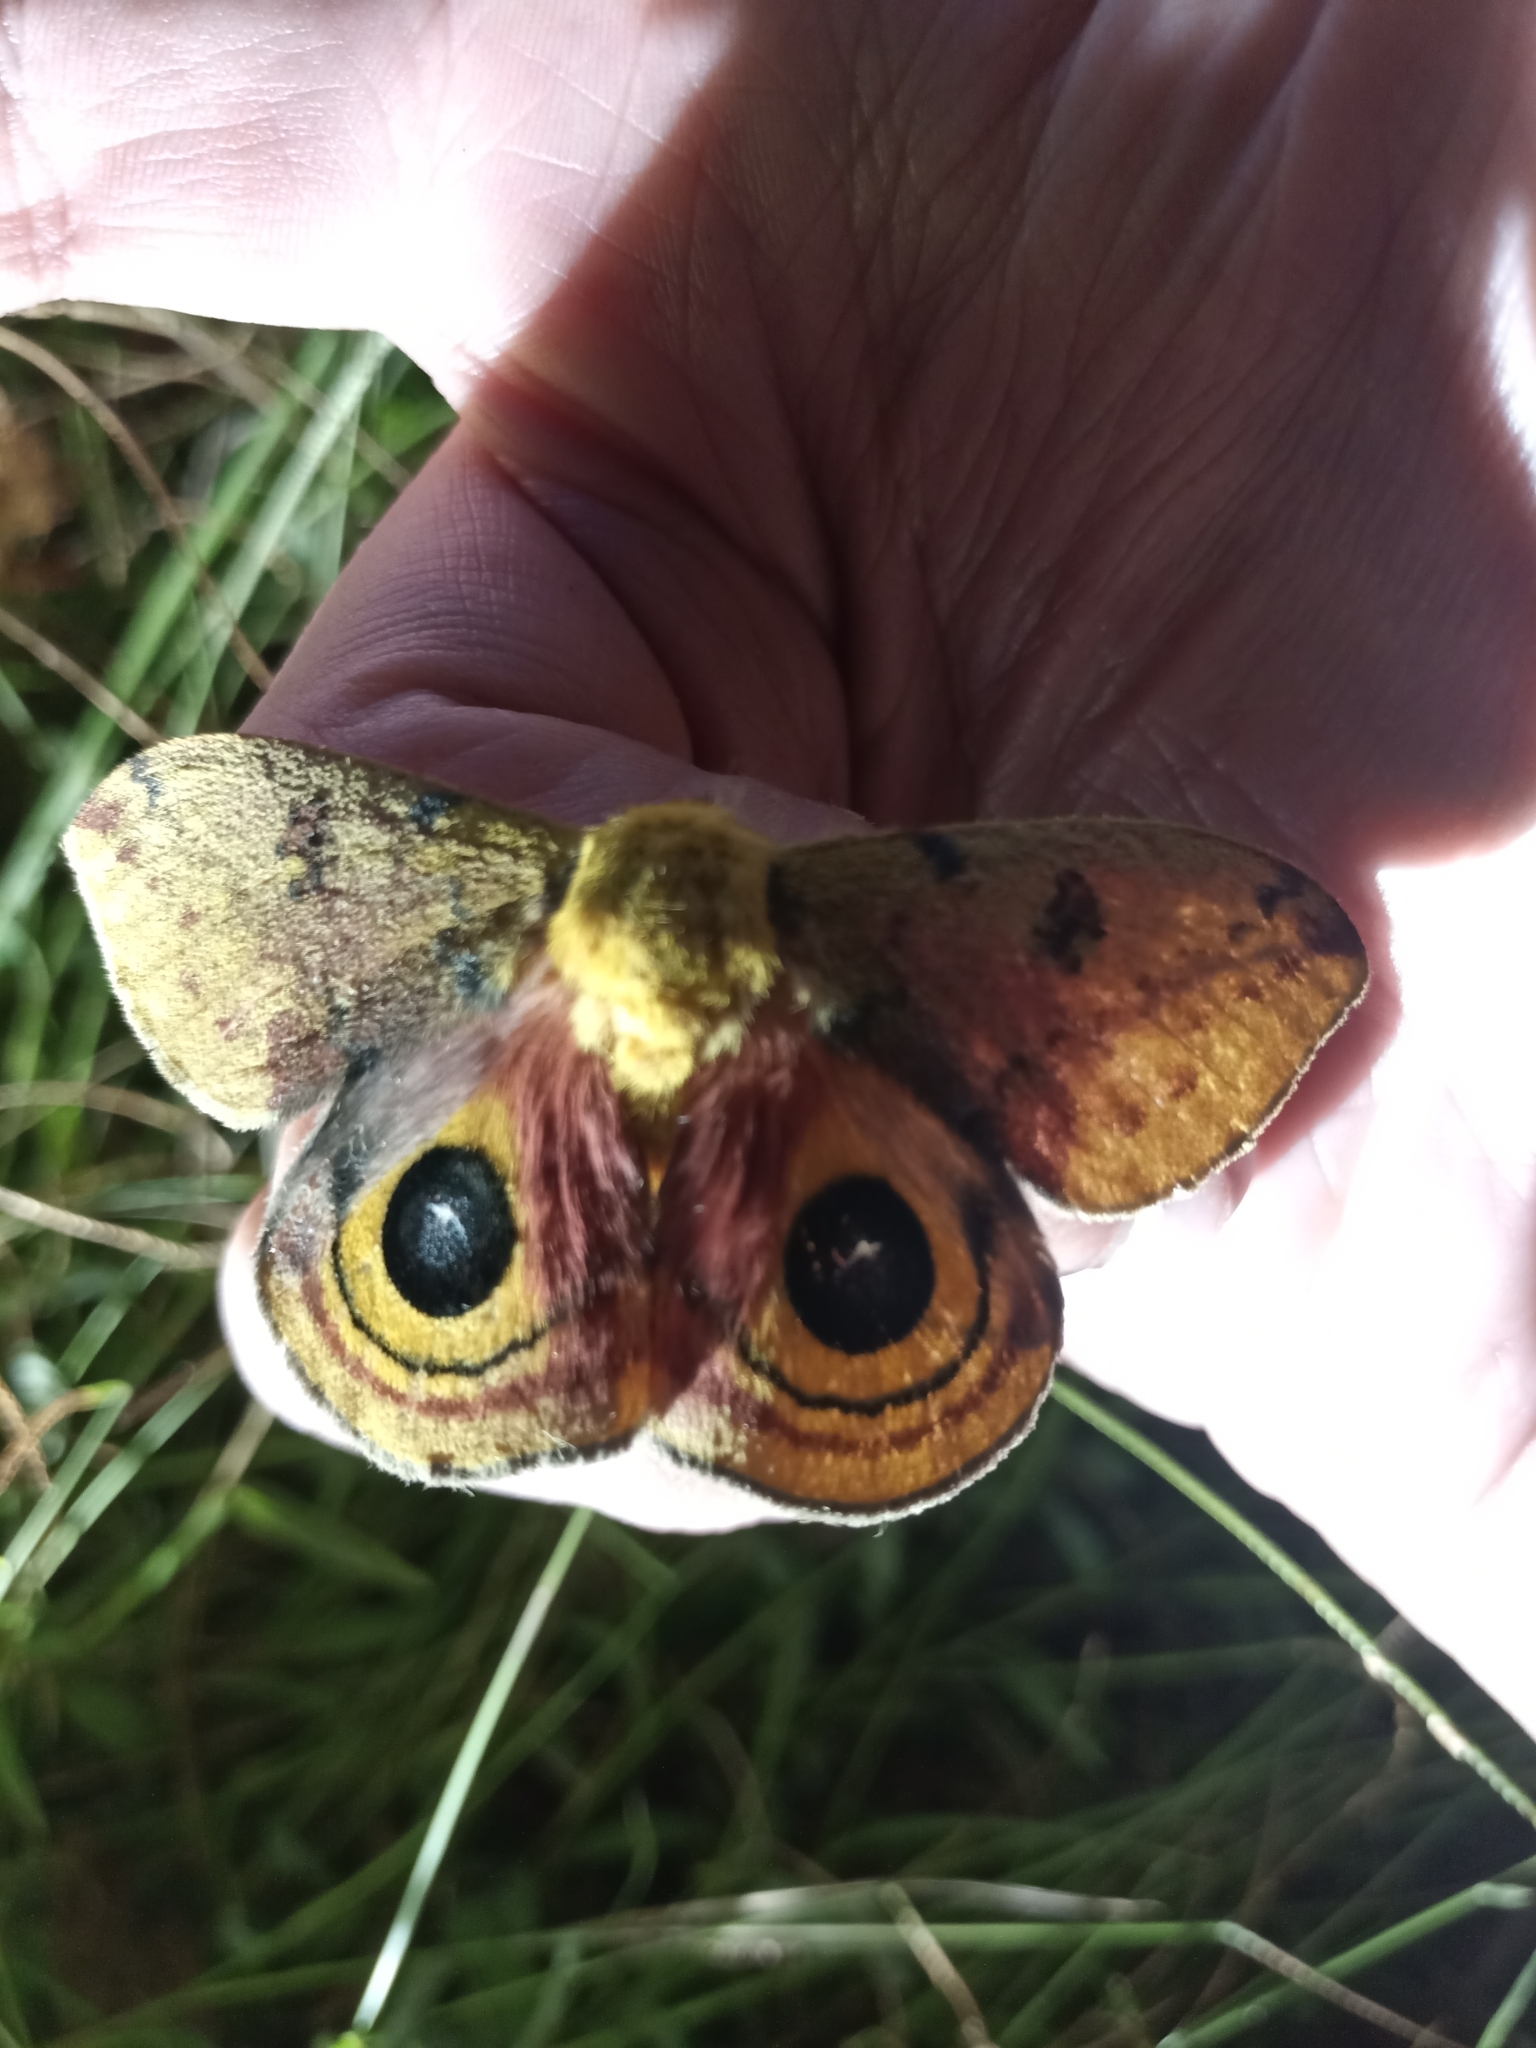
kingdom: Animalia
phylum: Arthropoda
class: Insecta
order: Lepidoptera
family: Saturniidae
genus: Automeris
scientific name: Automeris io
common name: Io moth
